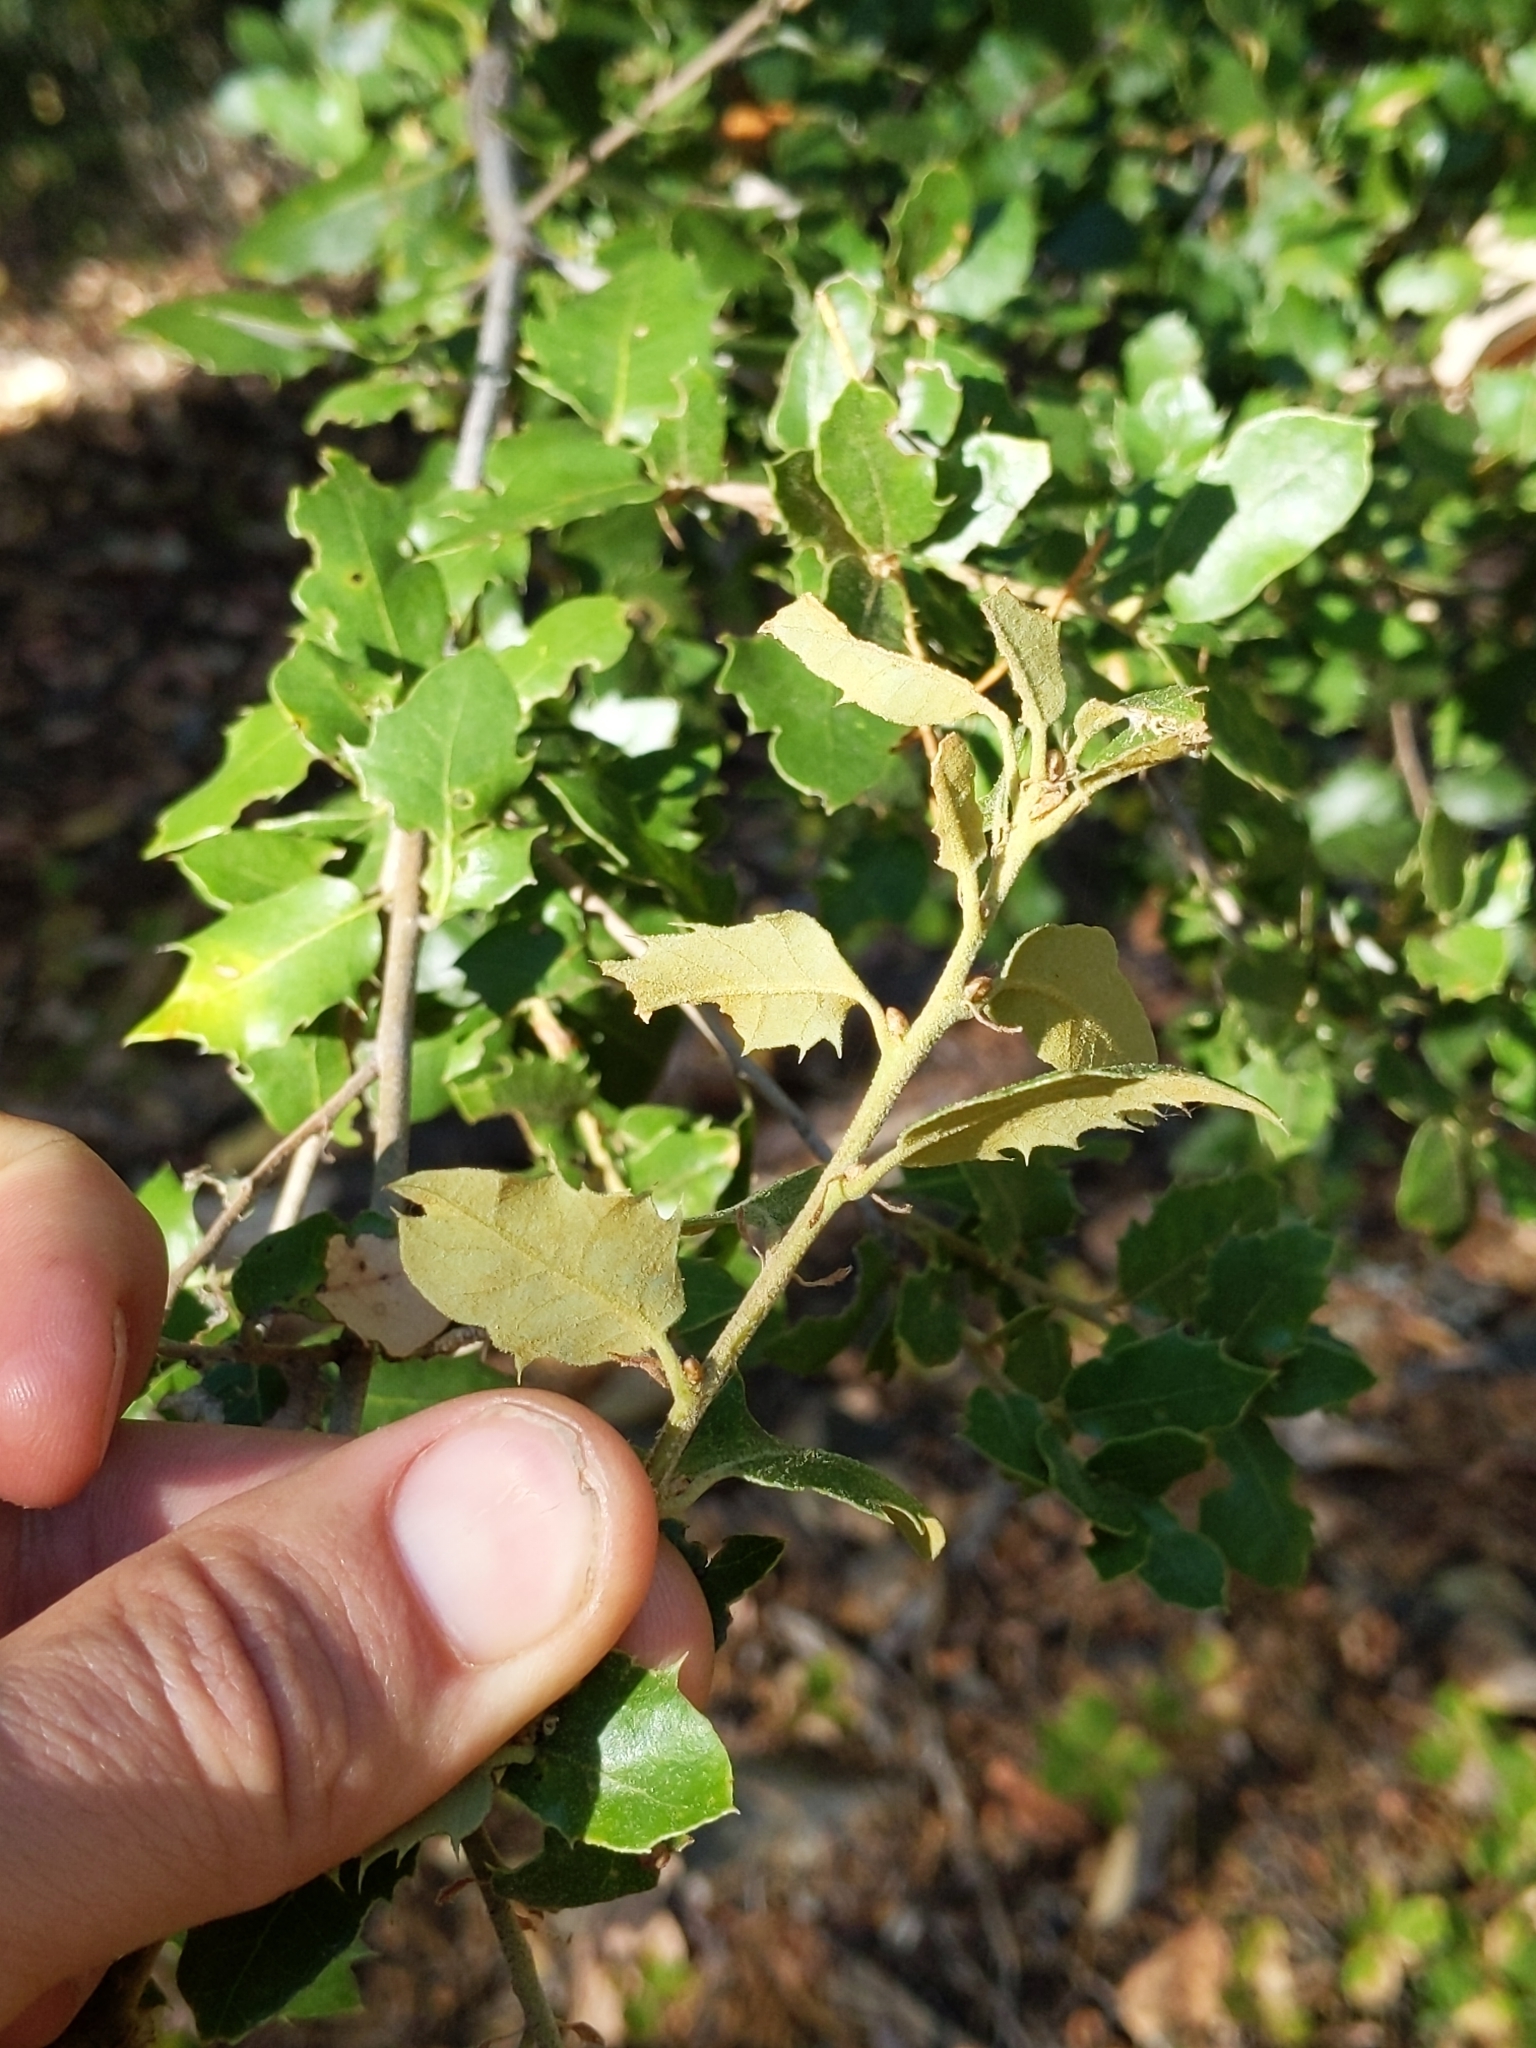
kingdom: Plantae
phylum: Tracheophyta
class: Magnoliopsida
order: Fagales
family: Fagaceae
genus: Quercus
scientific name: Quercus chrysolepis
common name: Canyon live oak
